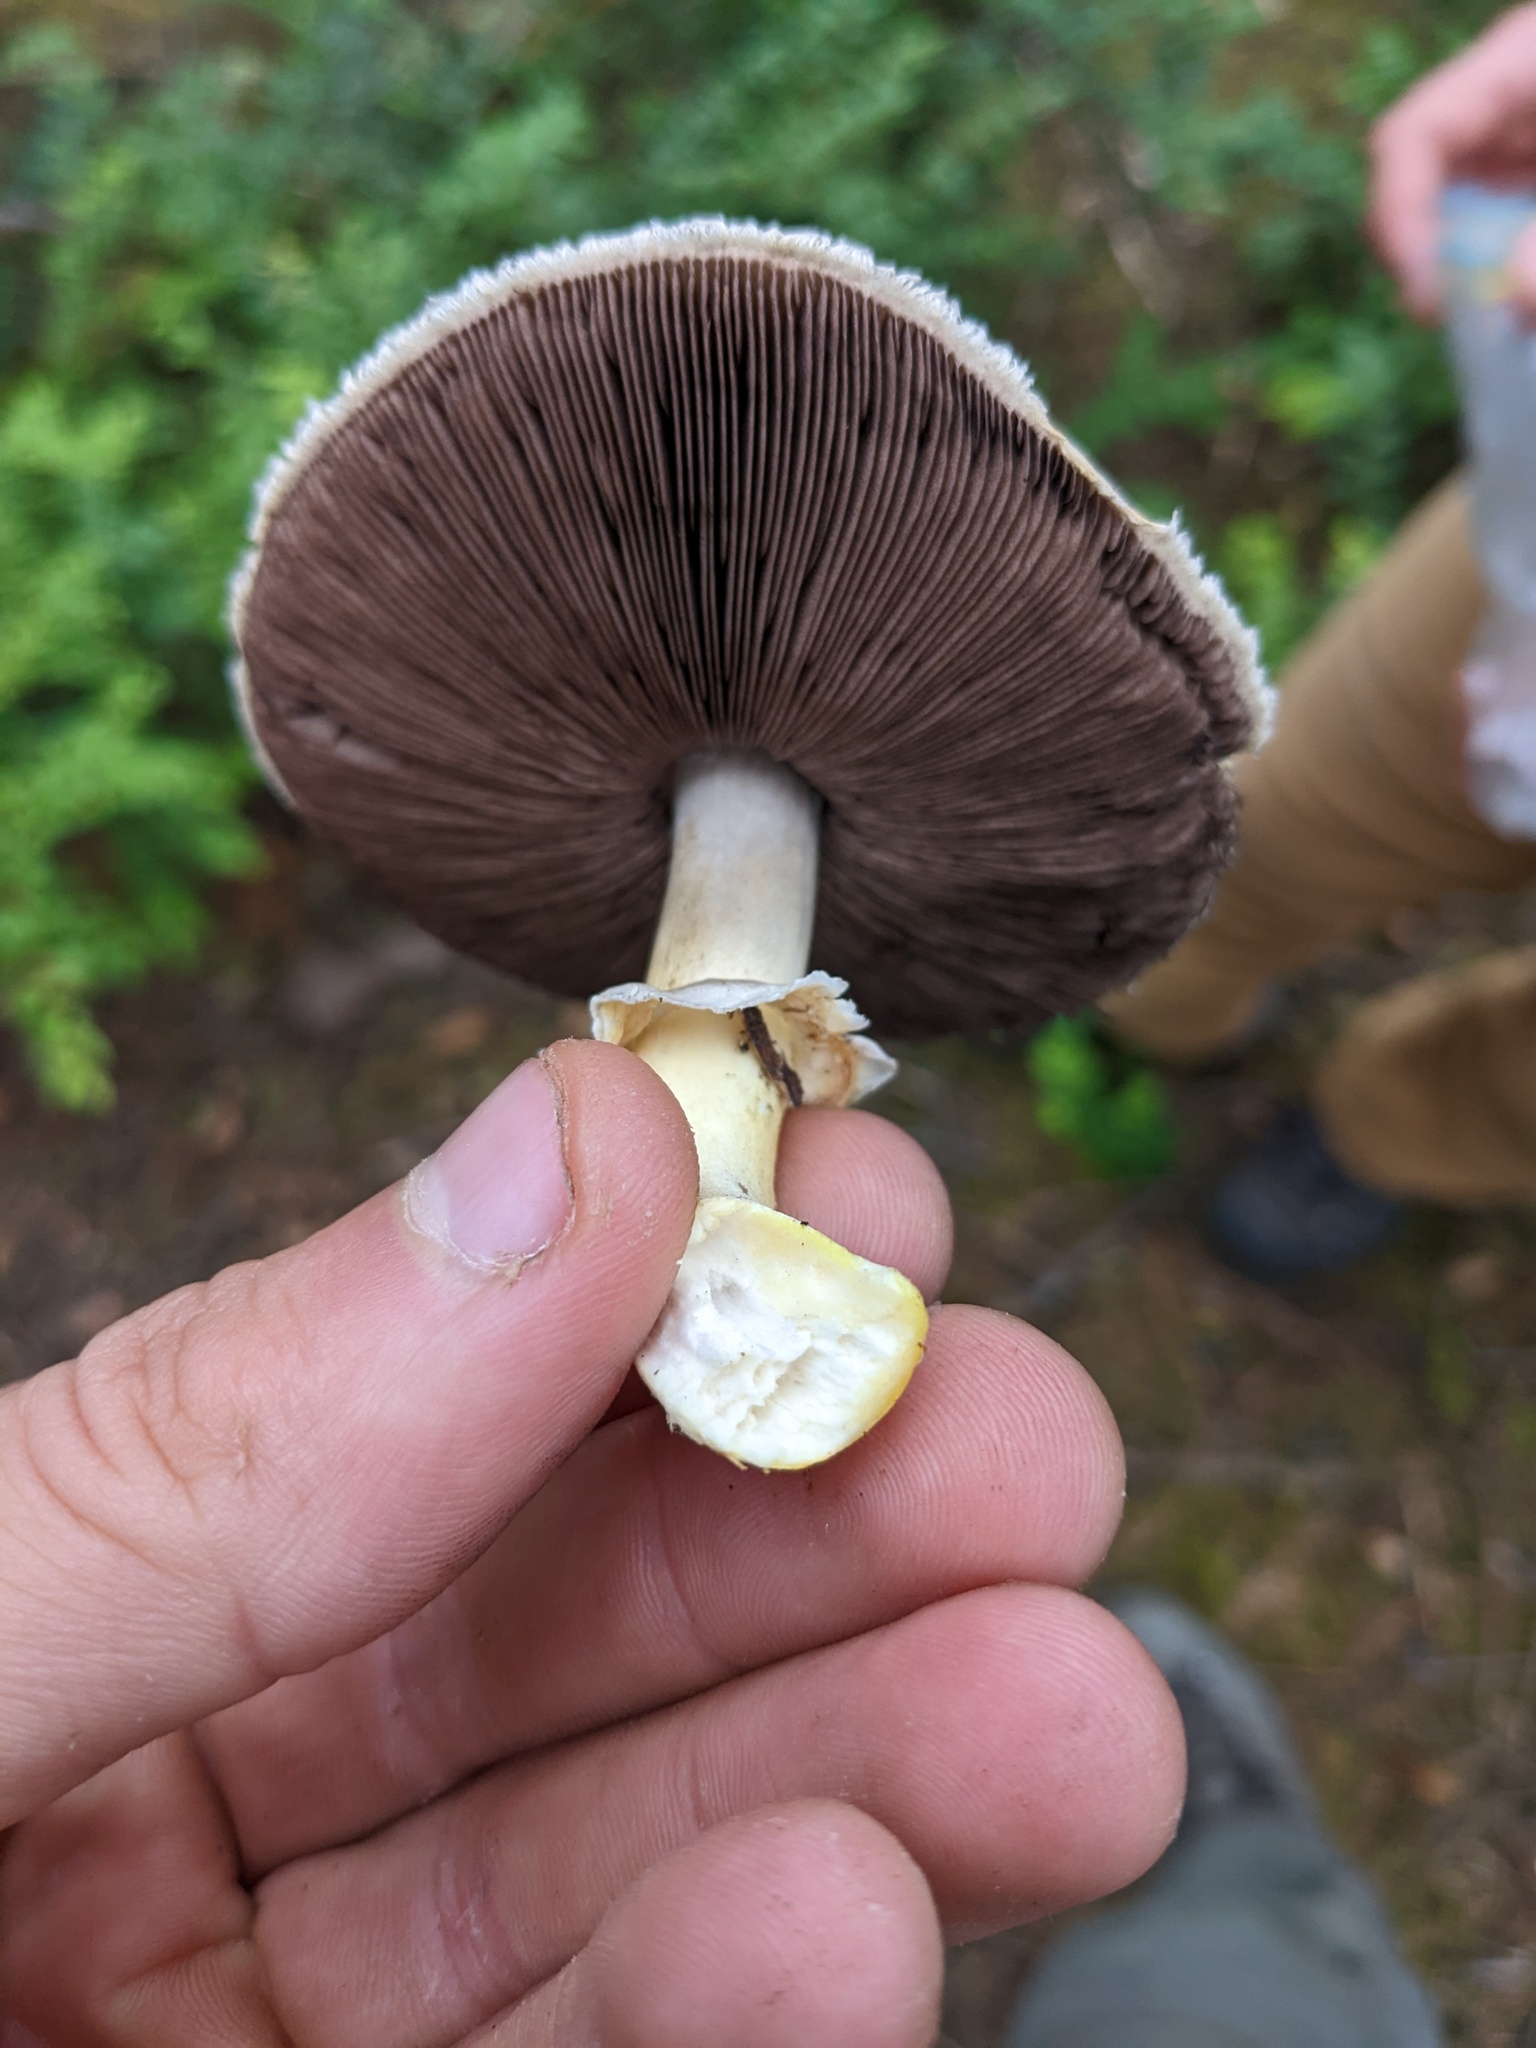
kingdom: Fungi
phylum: Basidiomycota
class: Agaricomycetes
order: Agaricales
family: Agaricaceae
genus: Agaricus
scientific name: Agaricus smithianus
